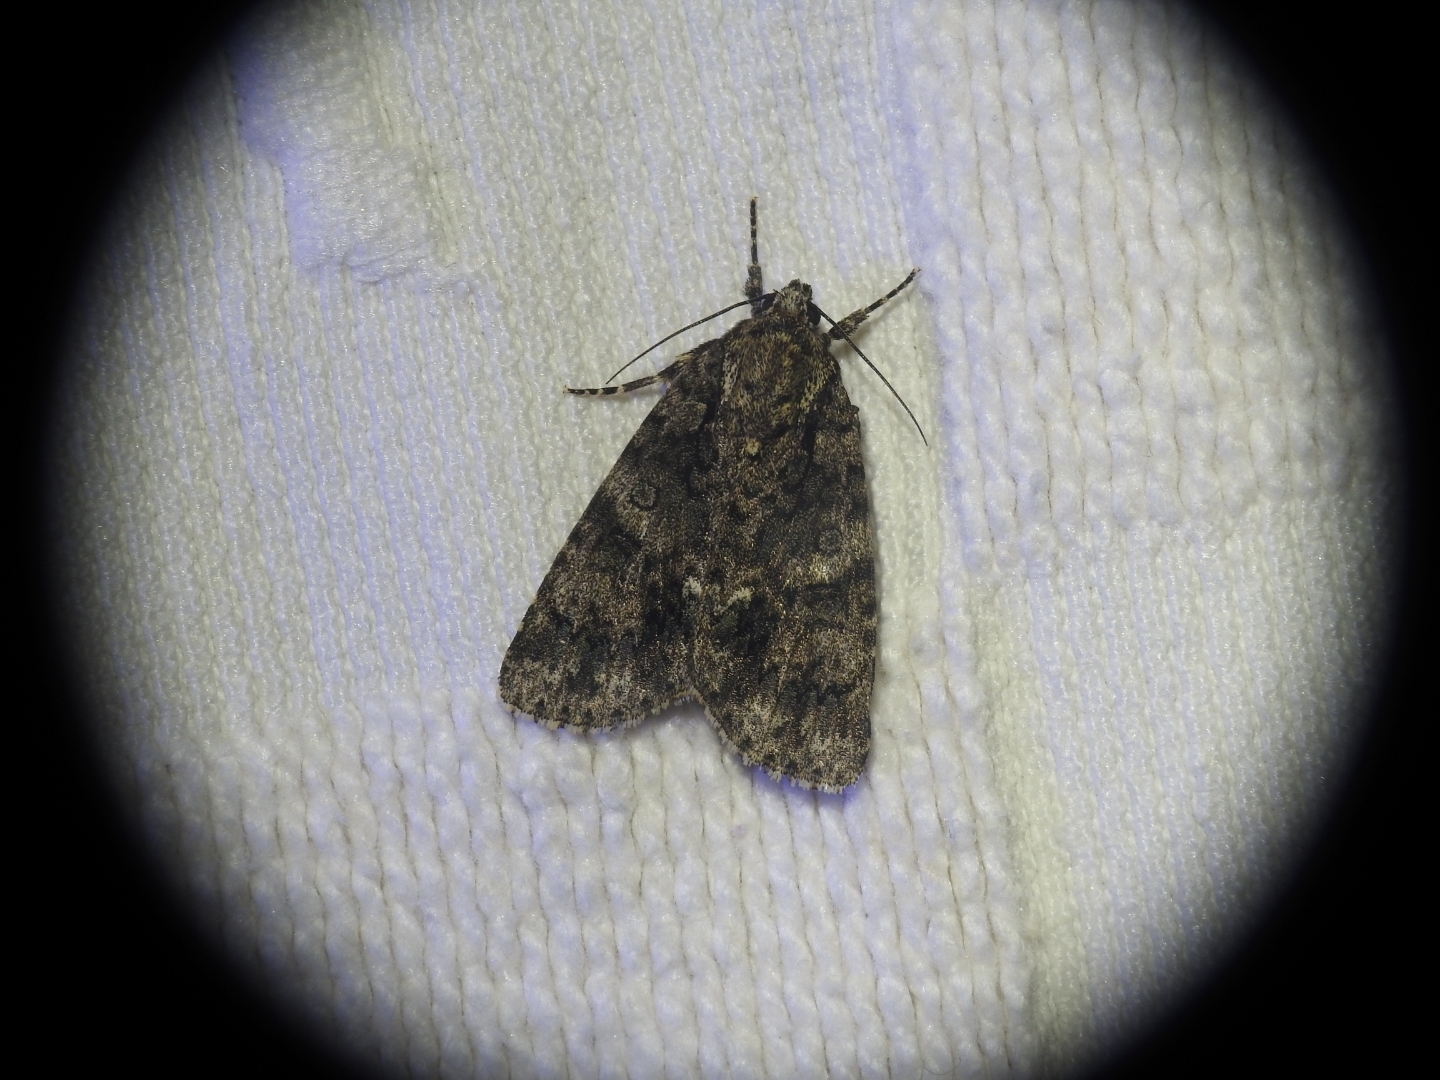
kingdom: Animalia
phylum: Arthropoda
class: Insecta
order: Lepidoptera
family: Noctuidae
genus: Acronicta
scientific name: Acronicta rumicis
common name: Knot grass
